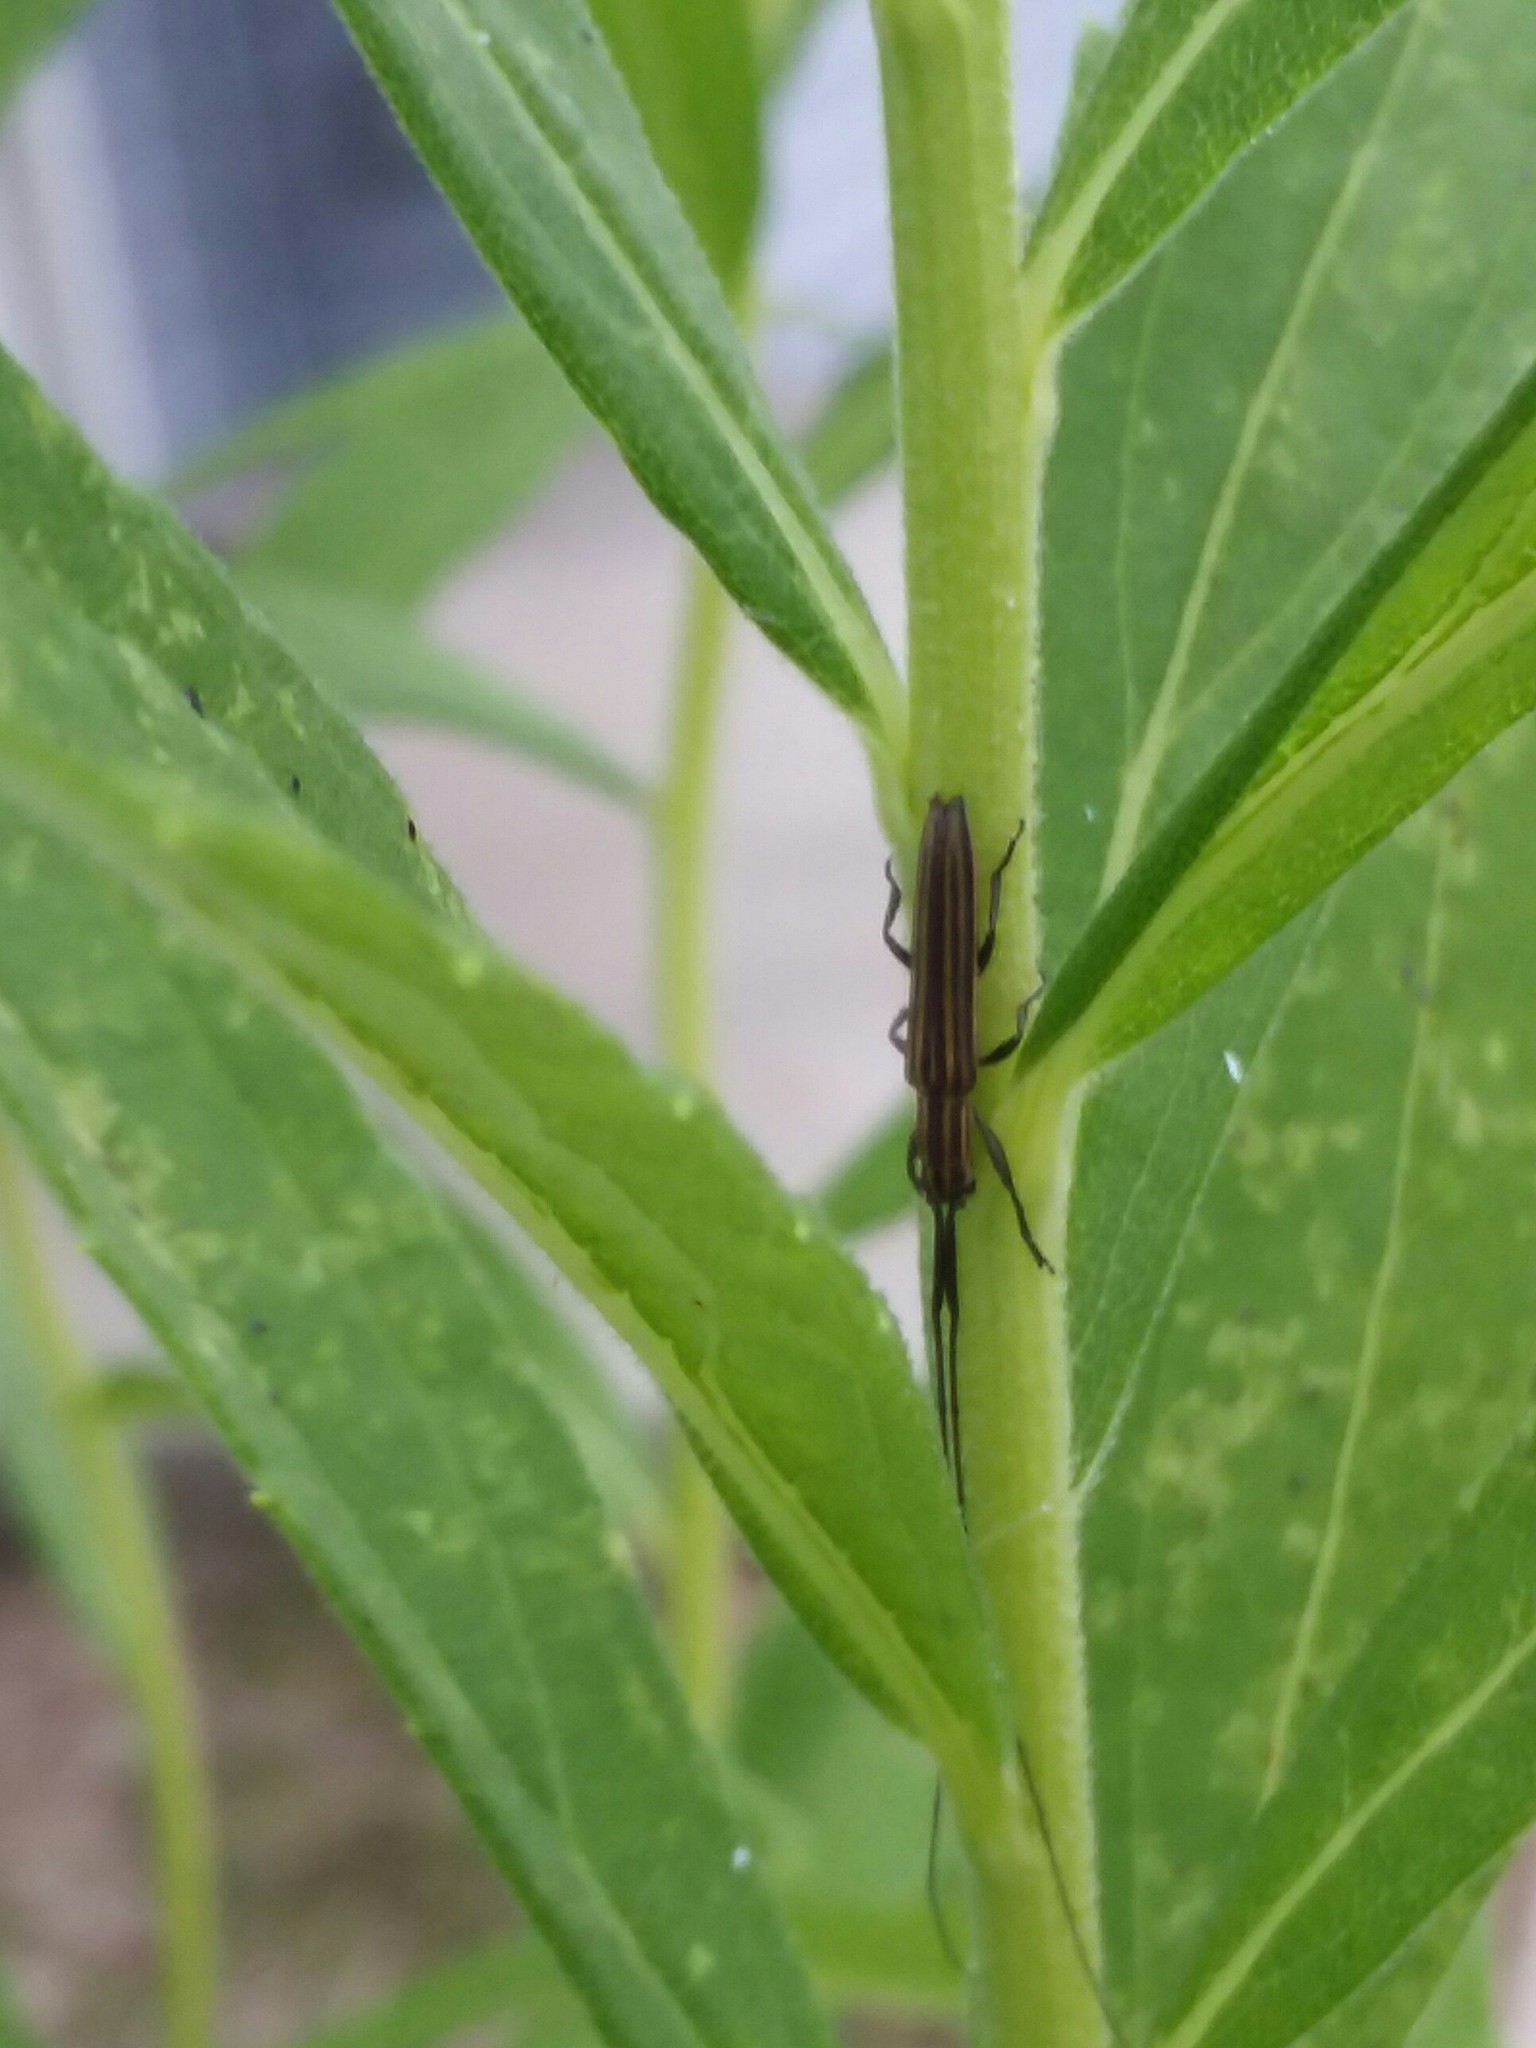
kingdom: Animalia
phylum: Arthropoda
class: Insecta
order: Coleoptera
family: Cerambycidae
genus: Hippopsis
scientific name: Hippopsis
